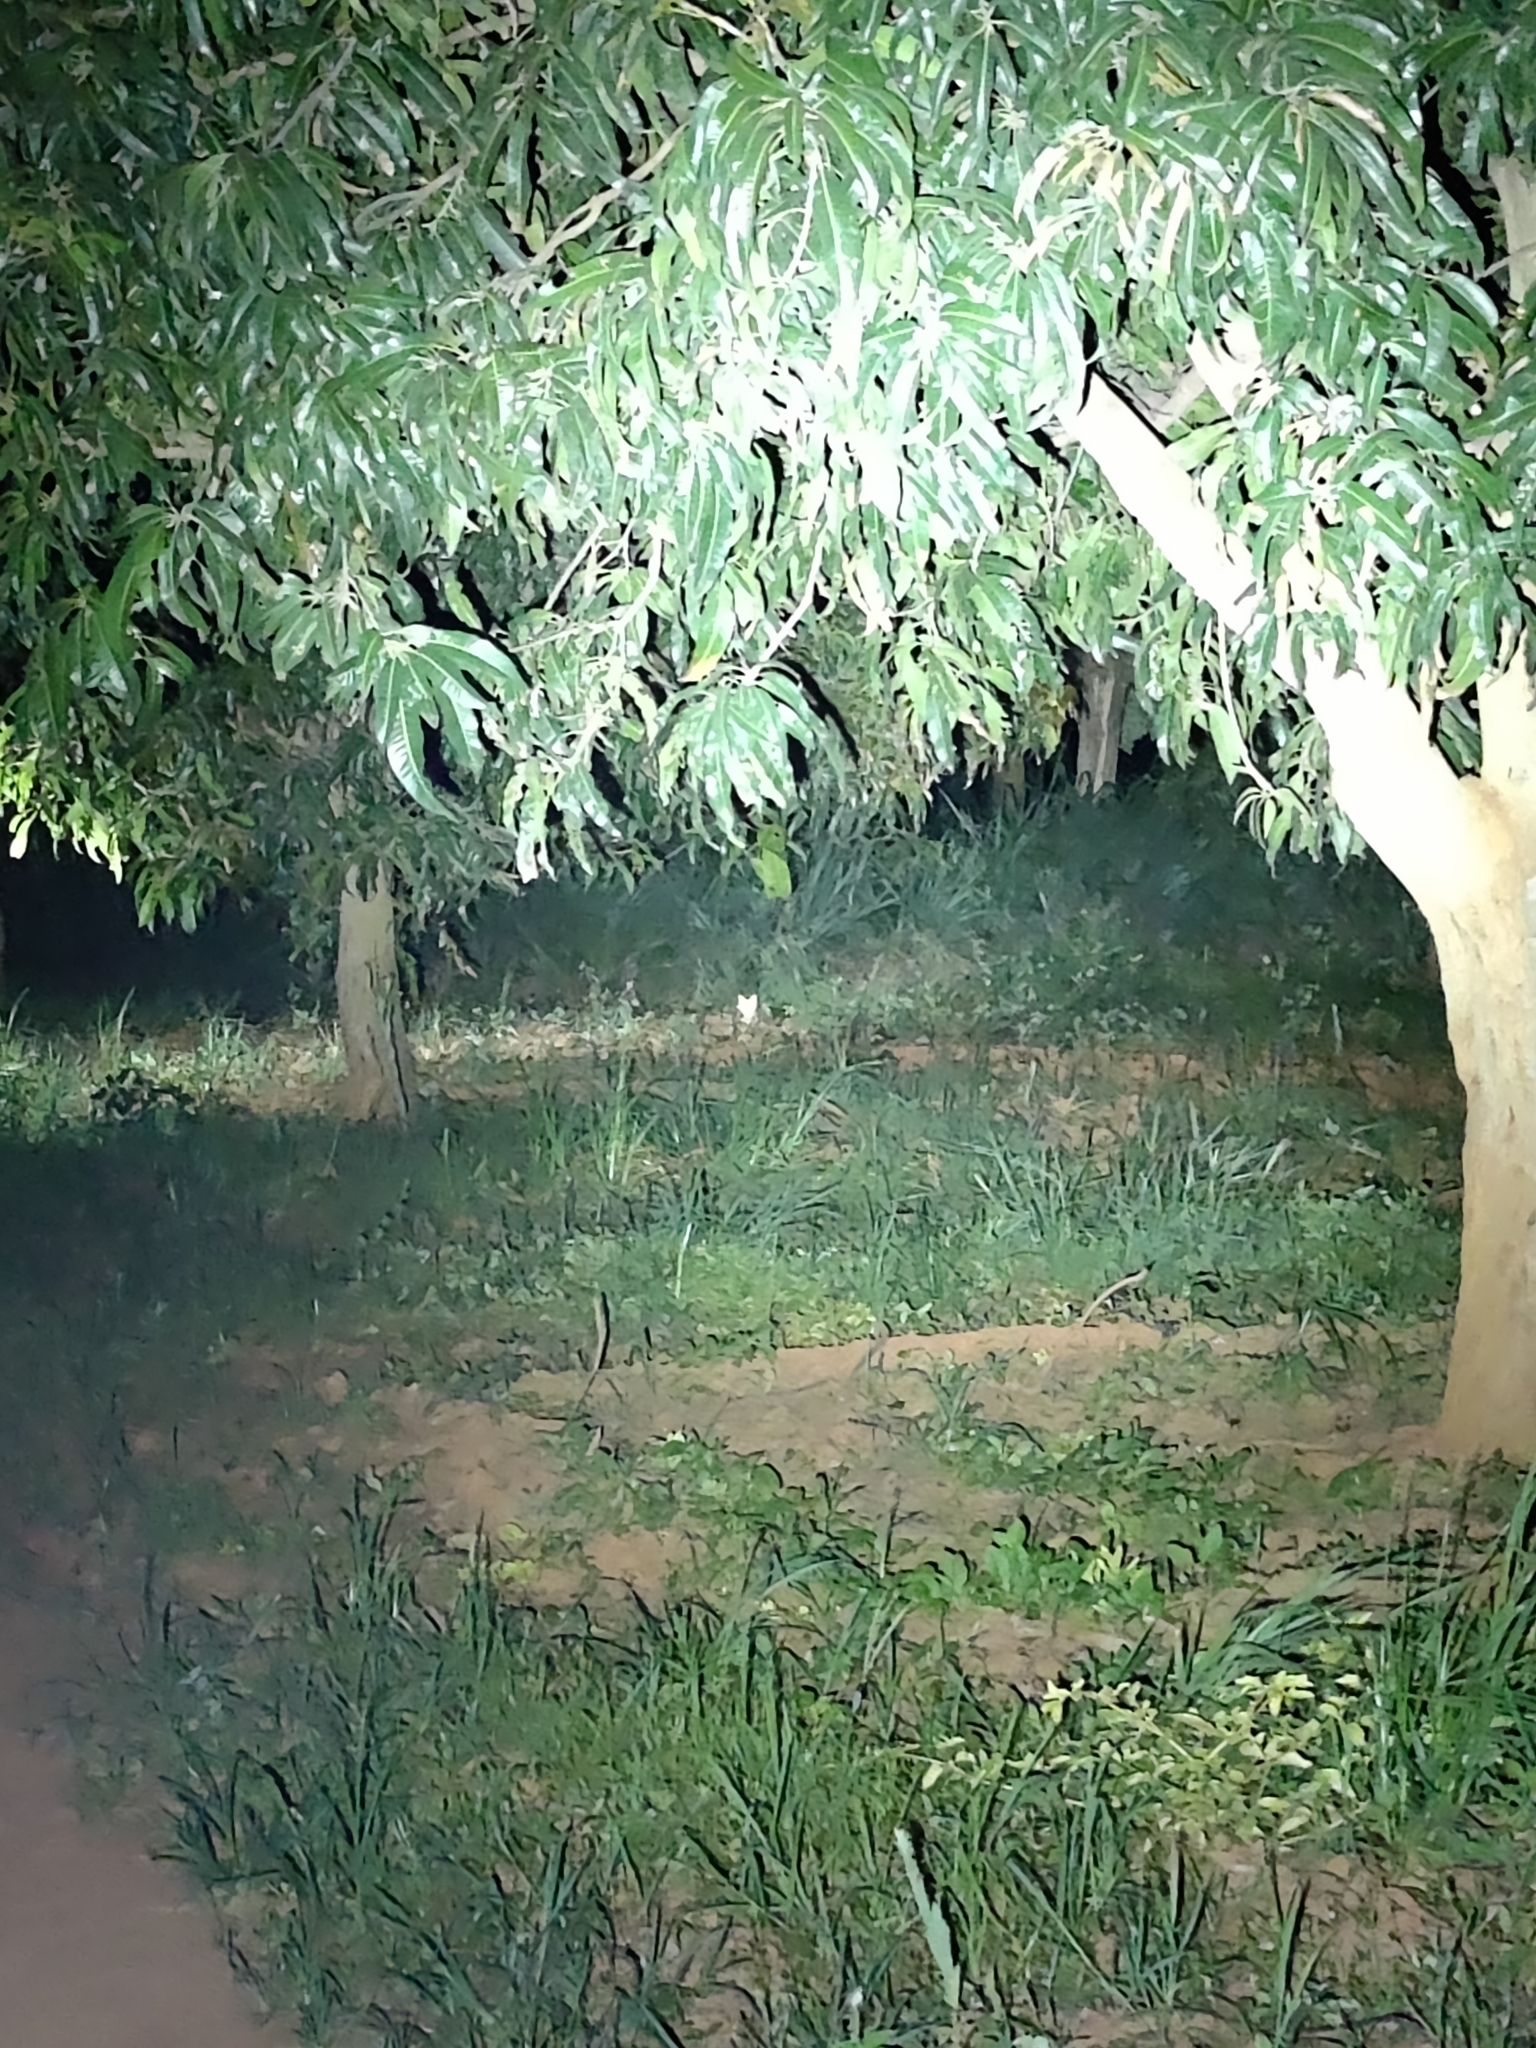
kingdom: Animalia
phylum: Chordata
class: Mammalia
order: Carnivora
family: Felidae
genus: Felis
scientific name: Felis chaus
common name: Jungle cat
